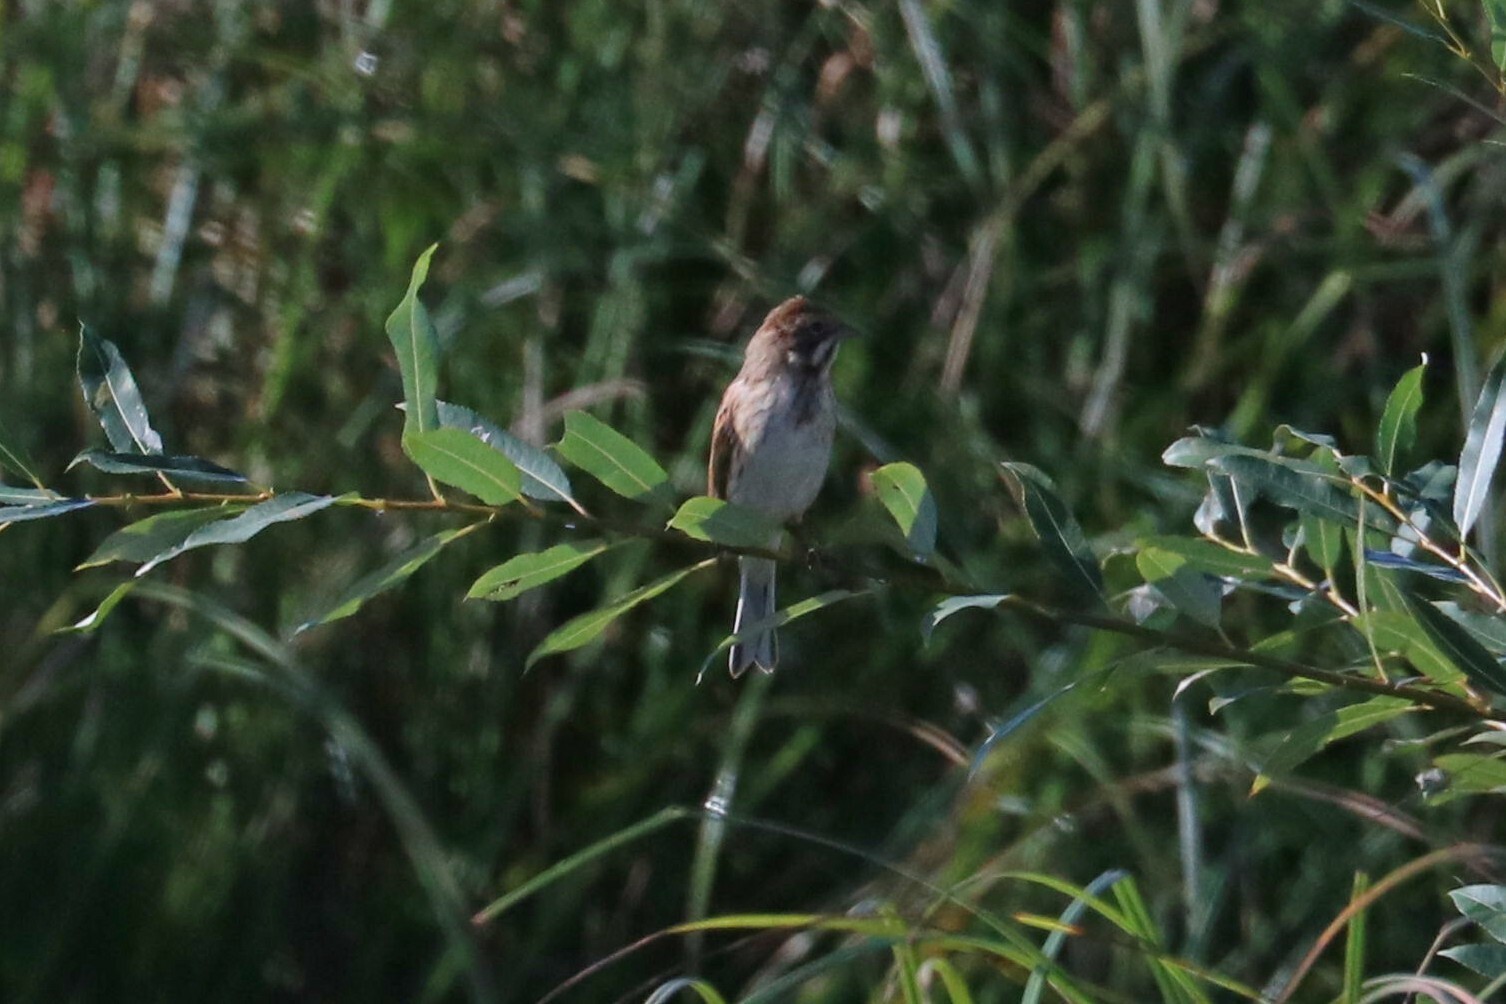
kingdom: Animalia
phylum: Chordata
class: Aves
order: Passeriformes
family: Emberizidae
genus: Emberiza
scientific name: Emberiza schoeniclus
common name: Reed bunting
